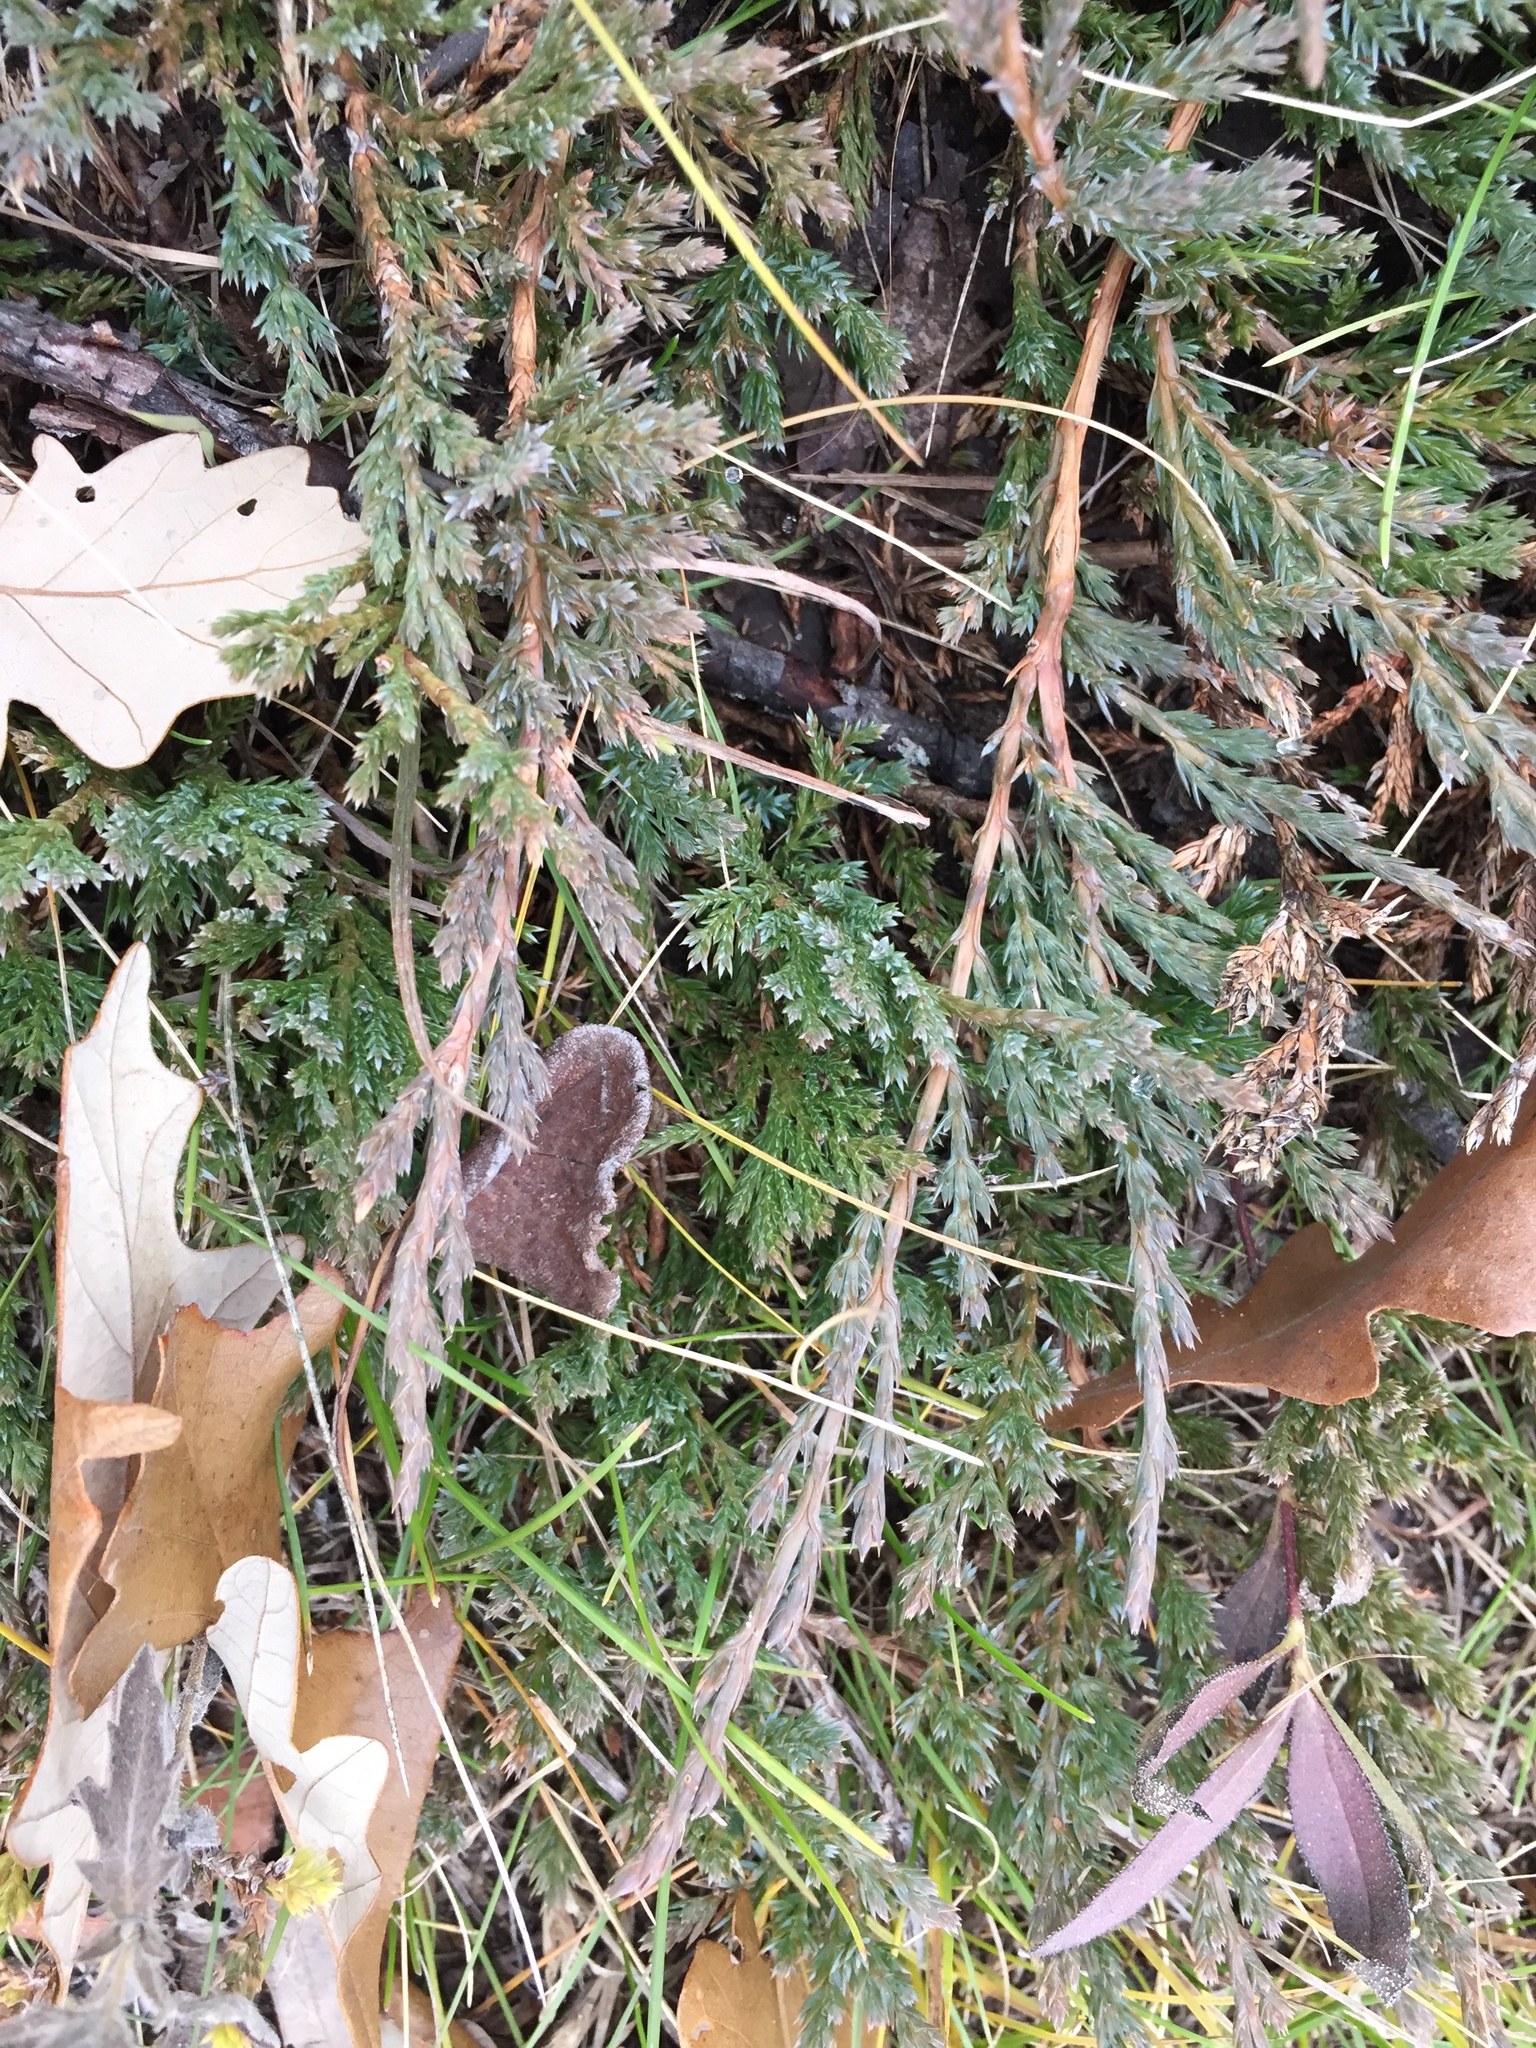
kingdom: Plantae
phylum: Tracheophyta
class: Pinopsida
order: Pinales
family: Cupressaceae
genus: Juniperus
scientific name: Juniperus horizontalis
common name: Creeping juniper
